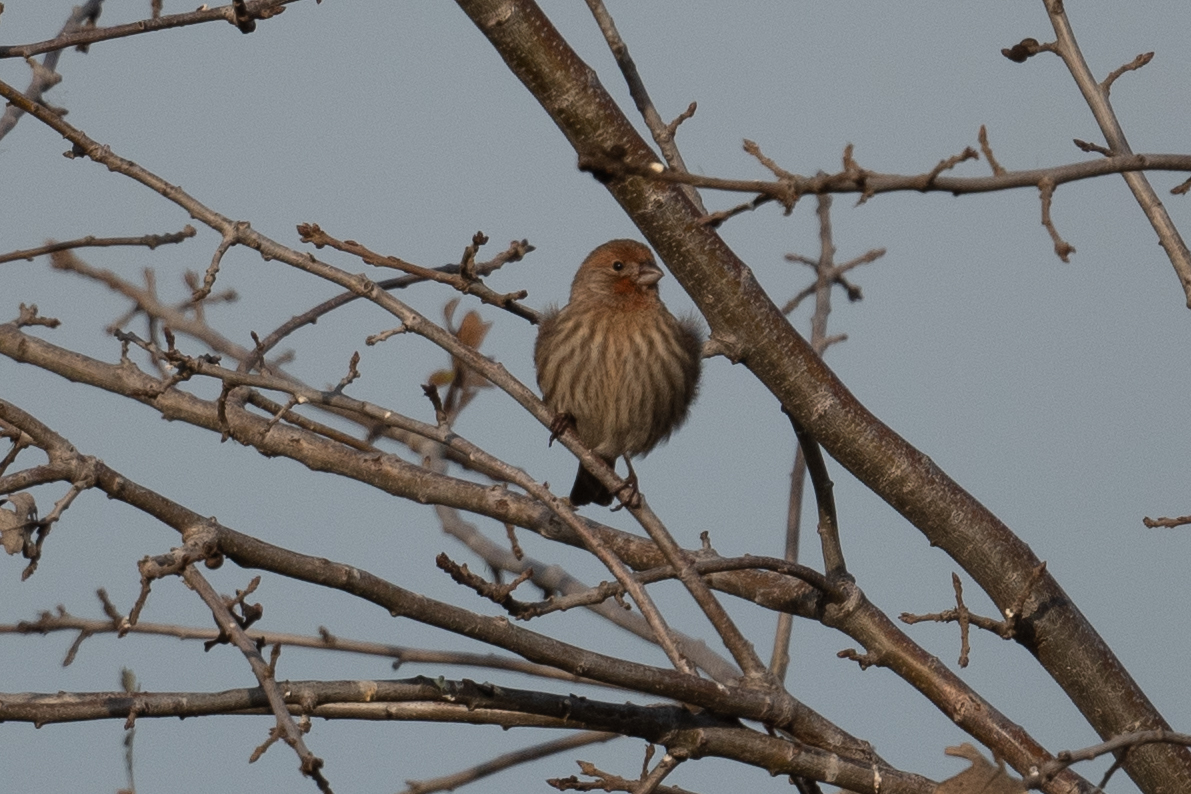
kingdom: Animalia
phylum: Chordata
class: Aves
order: Passeriformes
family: Fringillidae
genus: Haemorhous
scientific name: Haemorhous mexicanus
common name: House finch
